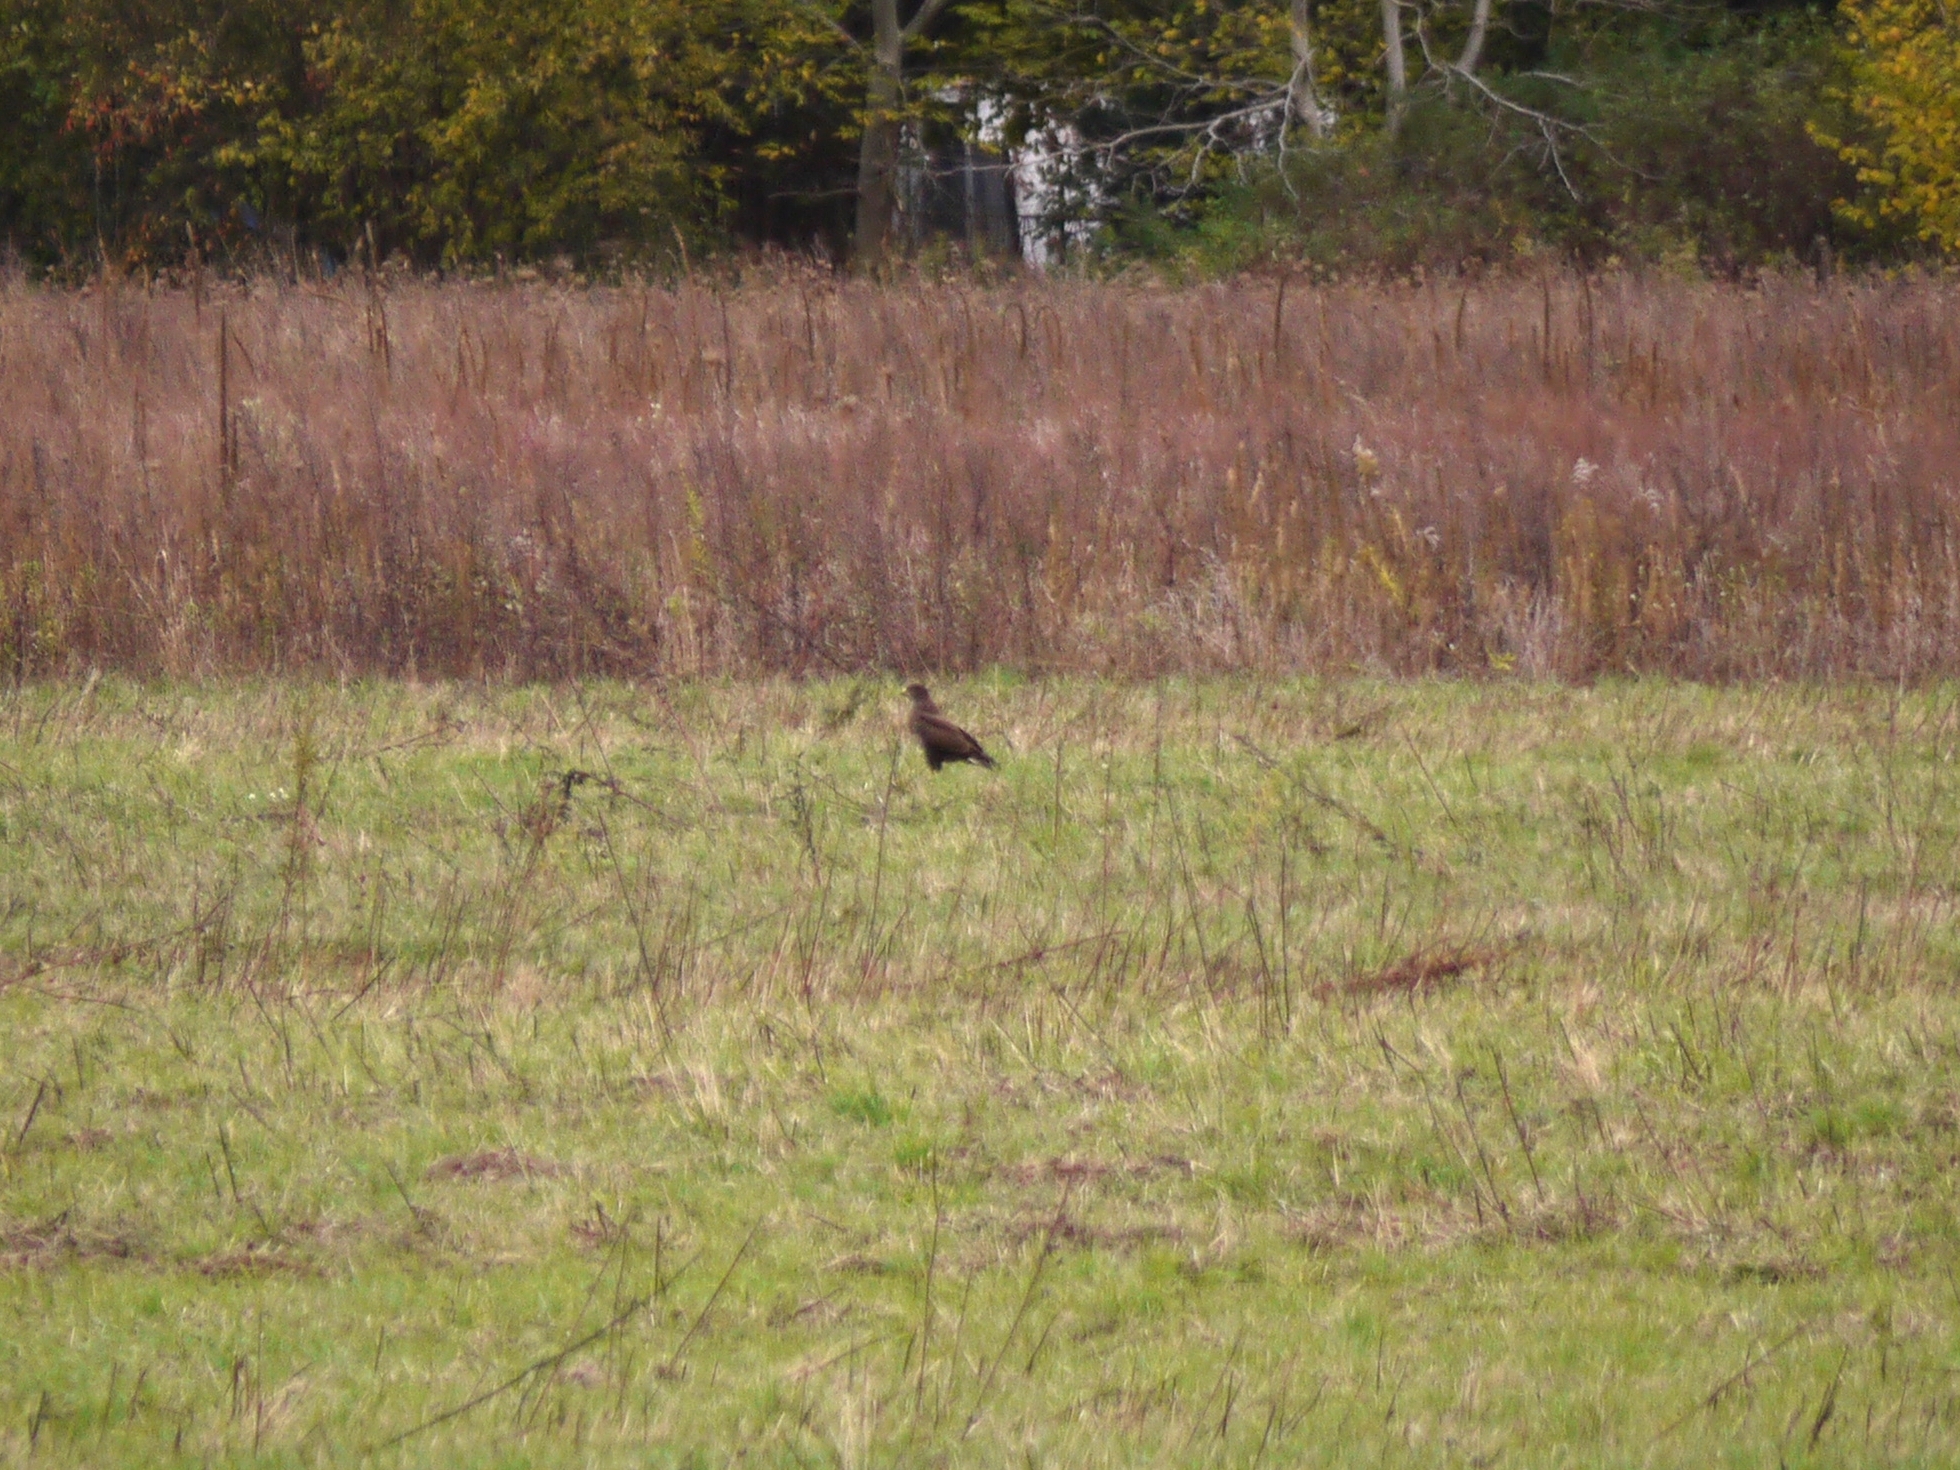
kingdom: Animalia
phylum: Chordata
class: Aves
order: Accipitriformes
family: Accipitridae
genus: Buteo
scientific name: Buteo buteo
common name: Common buzzard
